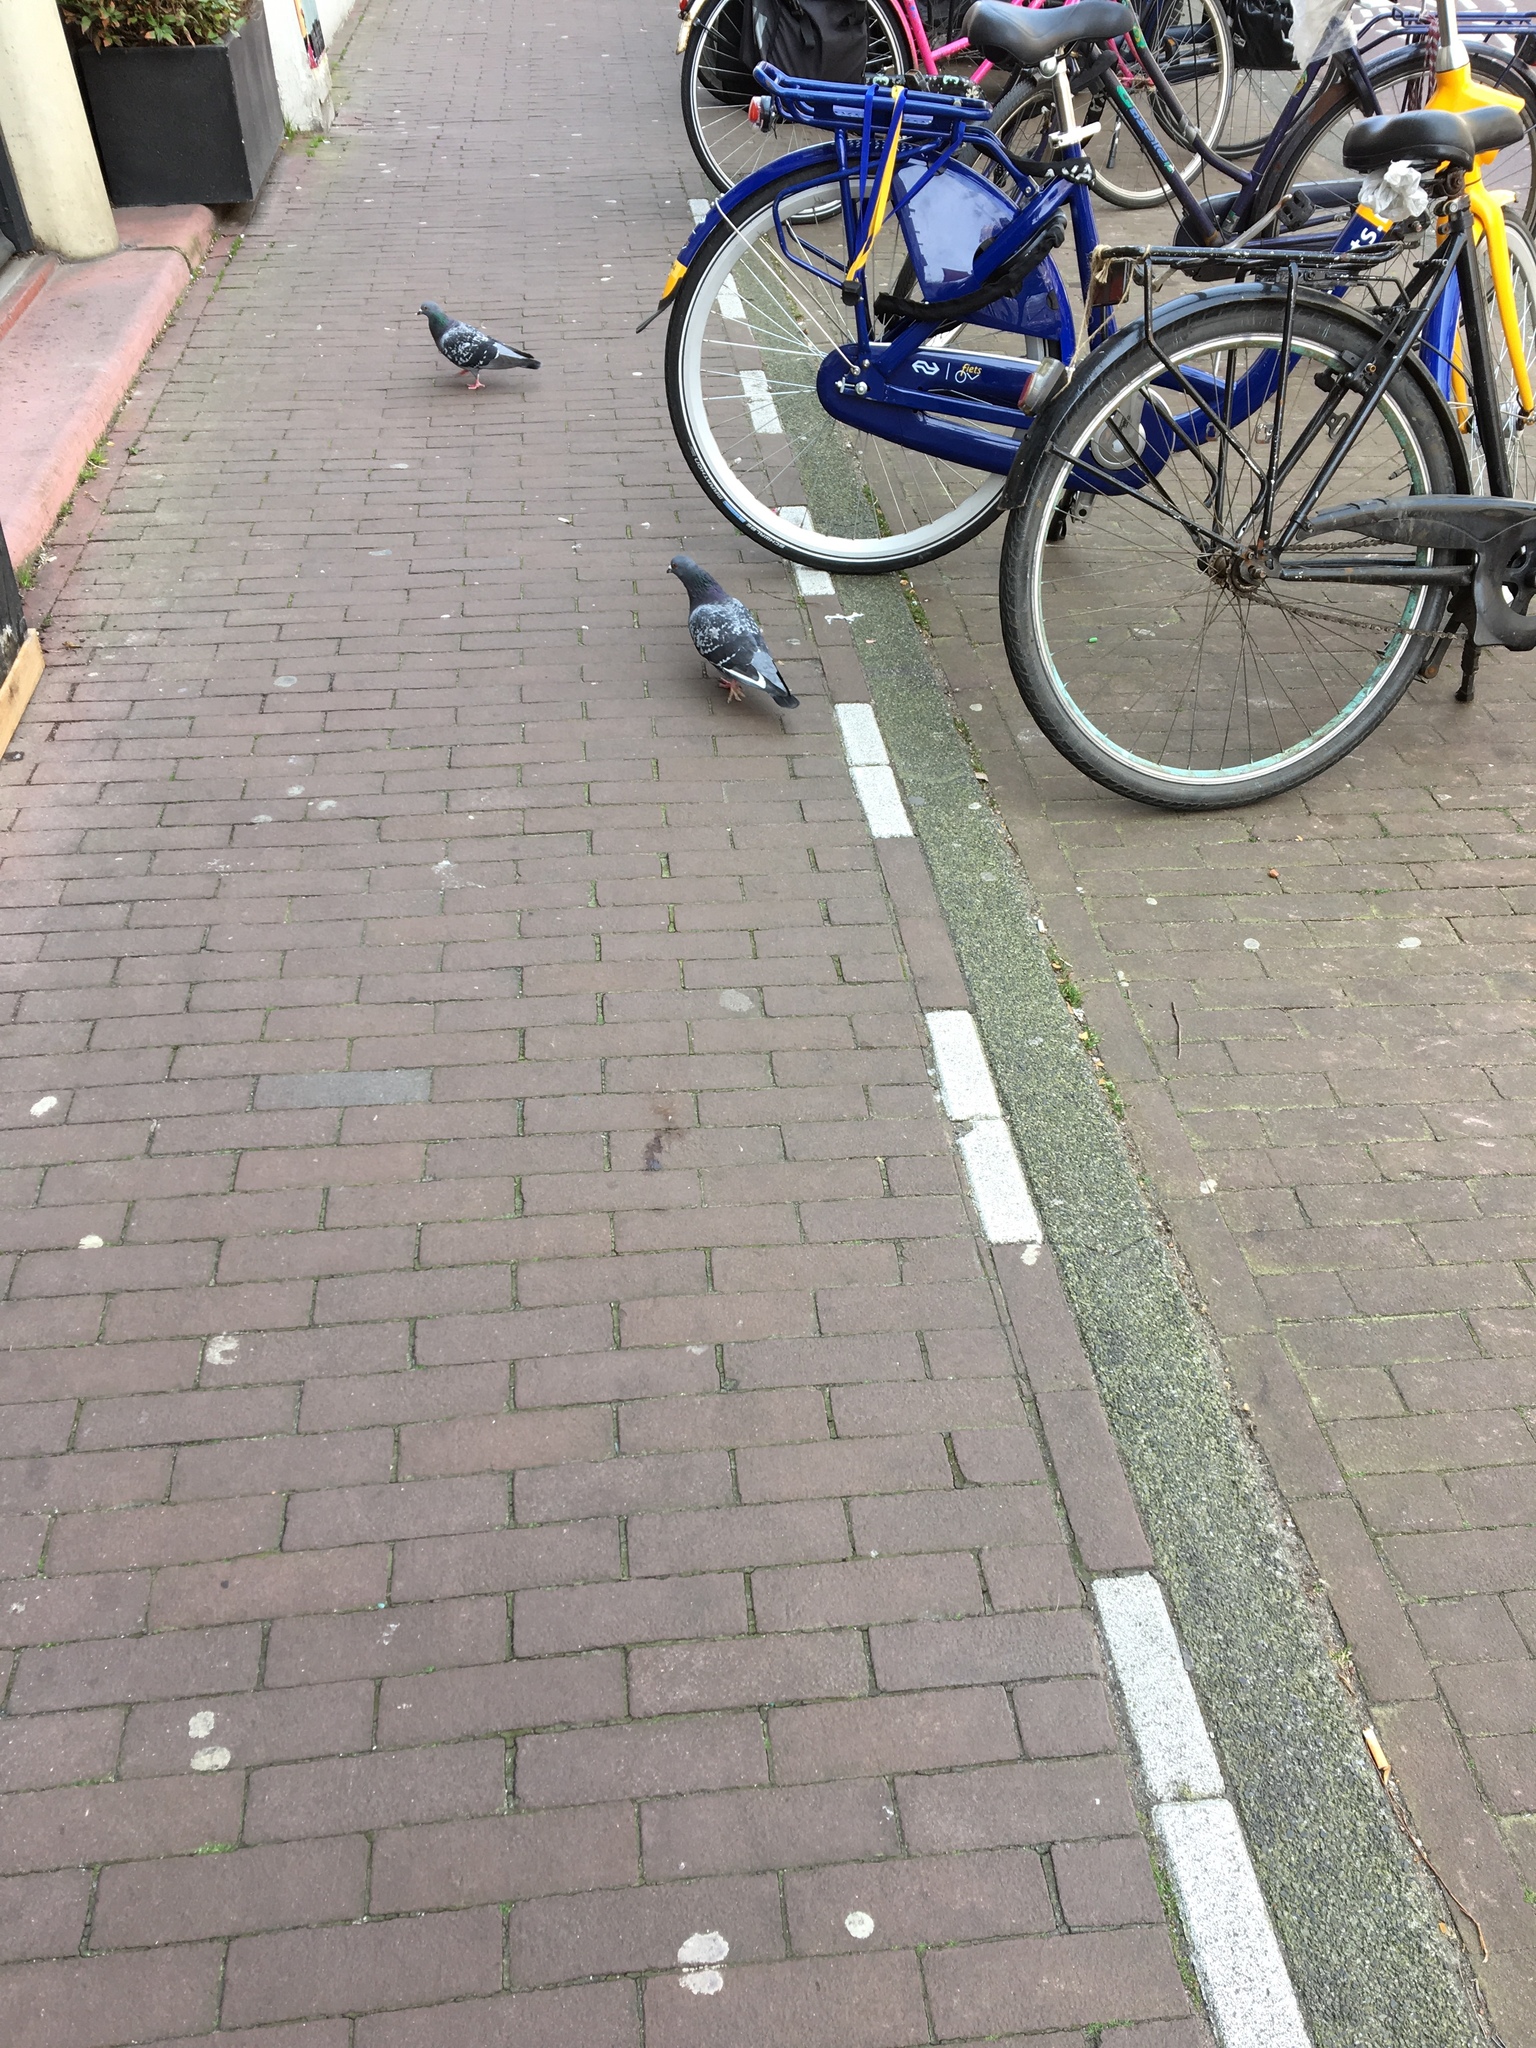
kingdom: Animalia
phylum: Chordata
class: Aves
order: Columbiformes
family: Columbidae
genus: Columba
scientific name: Columba livia
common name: Rock pigeon
